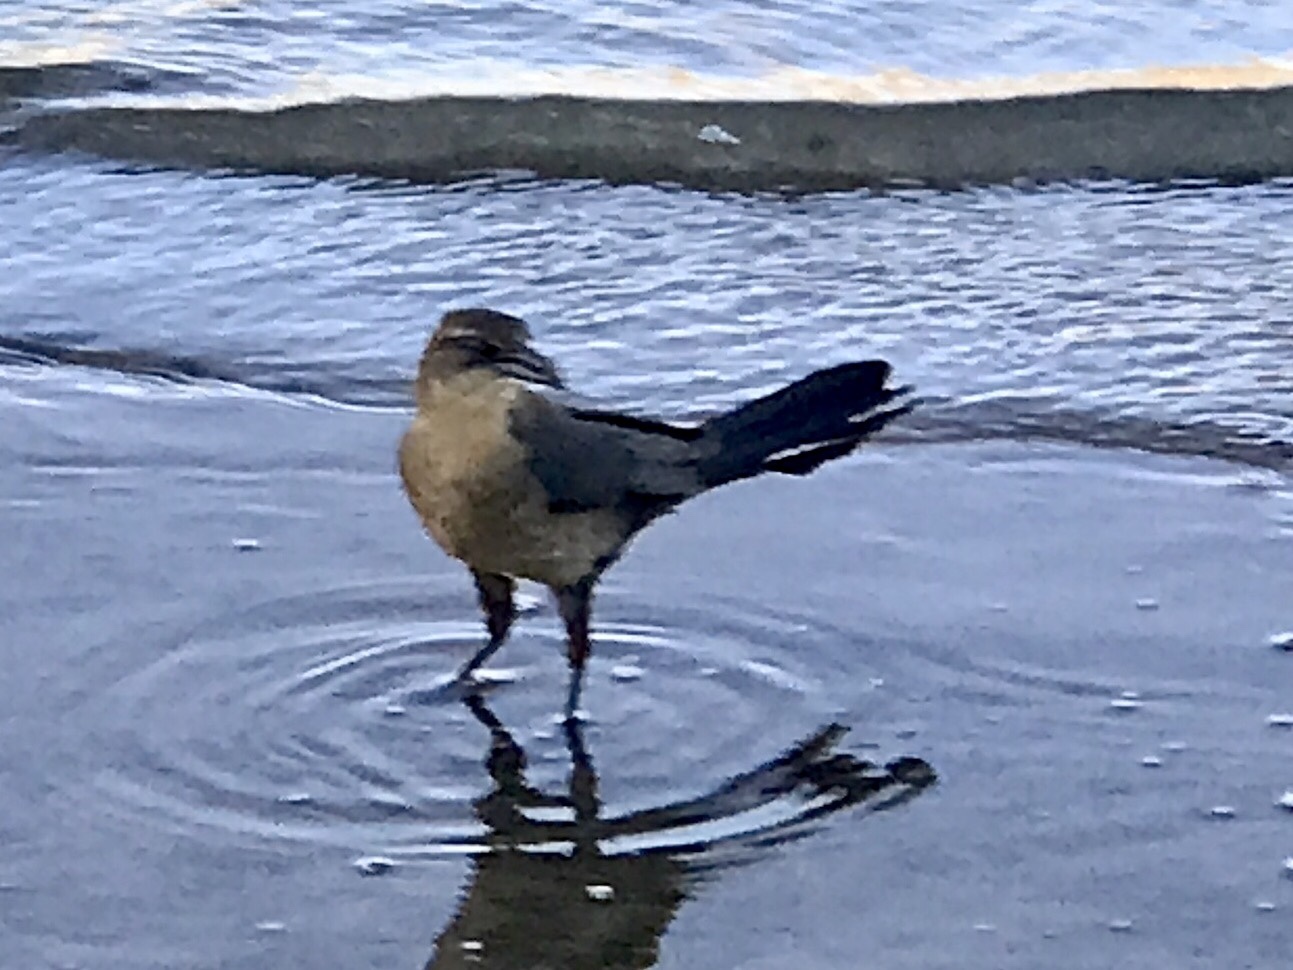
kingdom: Animalia
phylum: Chordata
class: Aves
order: Passeriformes
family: Icteridae
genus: Quiscalus
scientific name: Quiscalus mexicanus
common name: Great-tailed grackle
